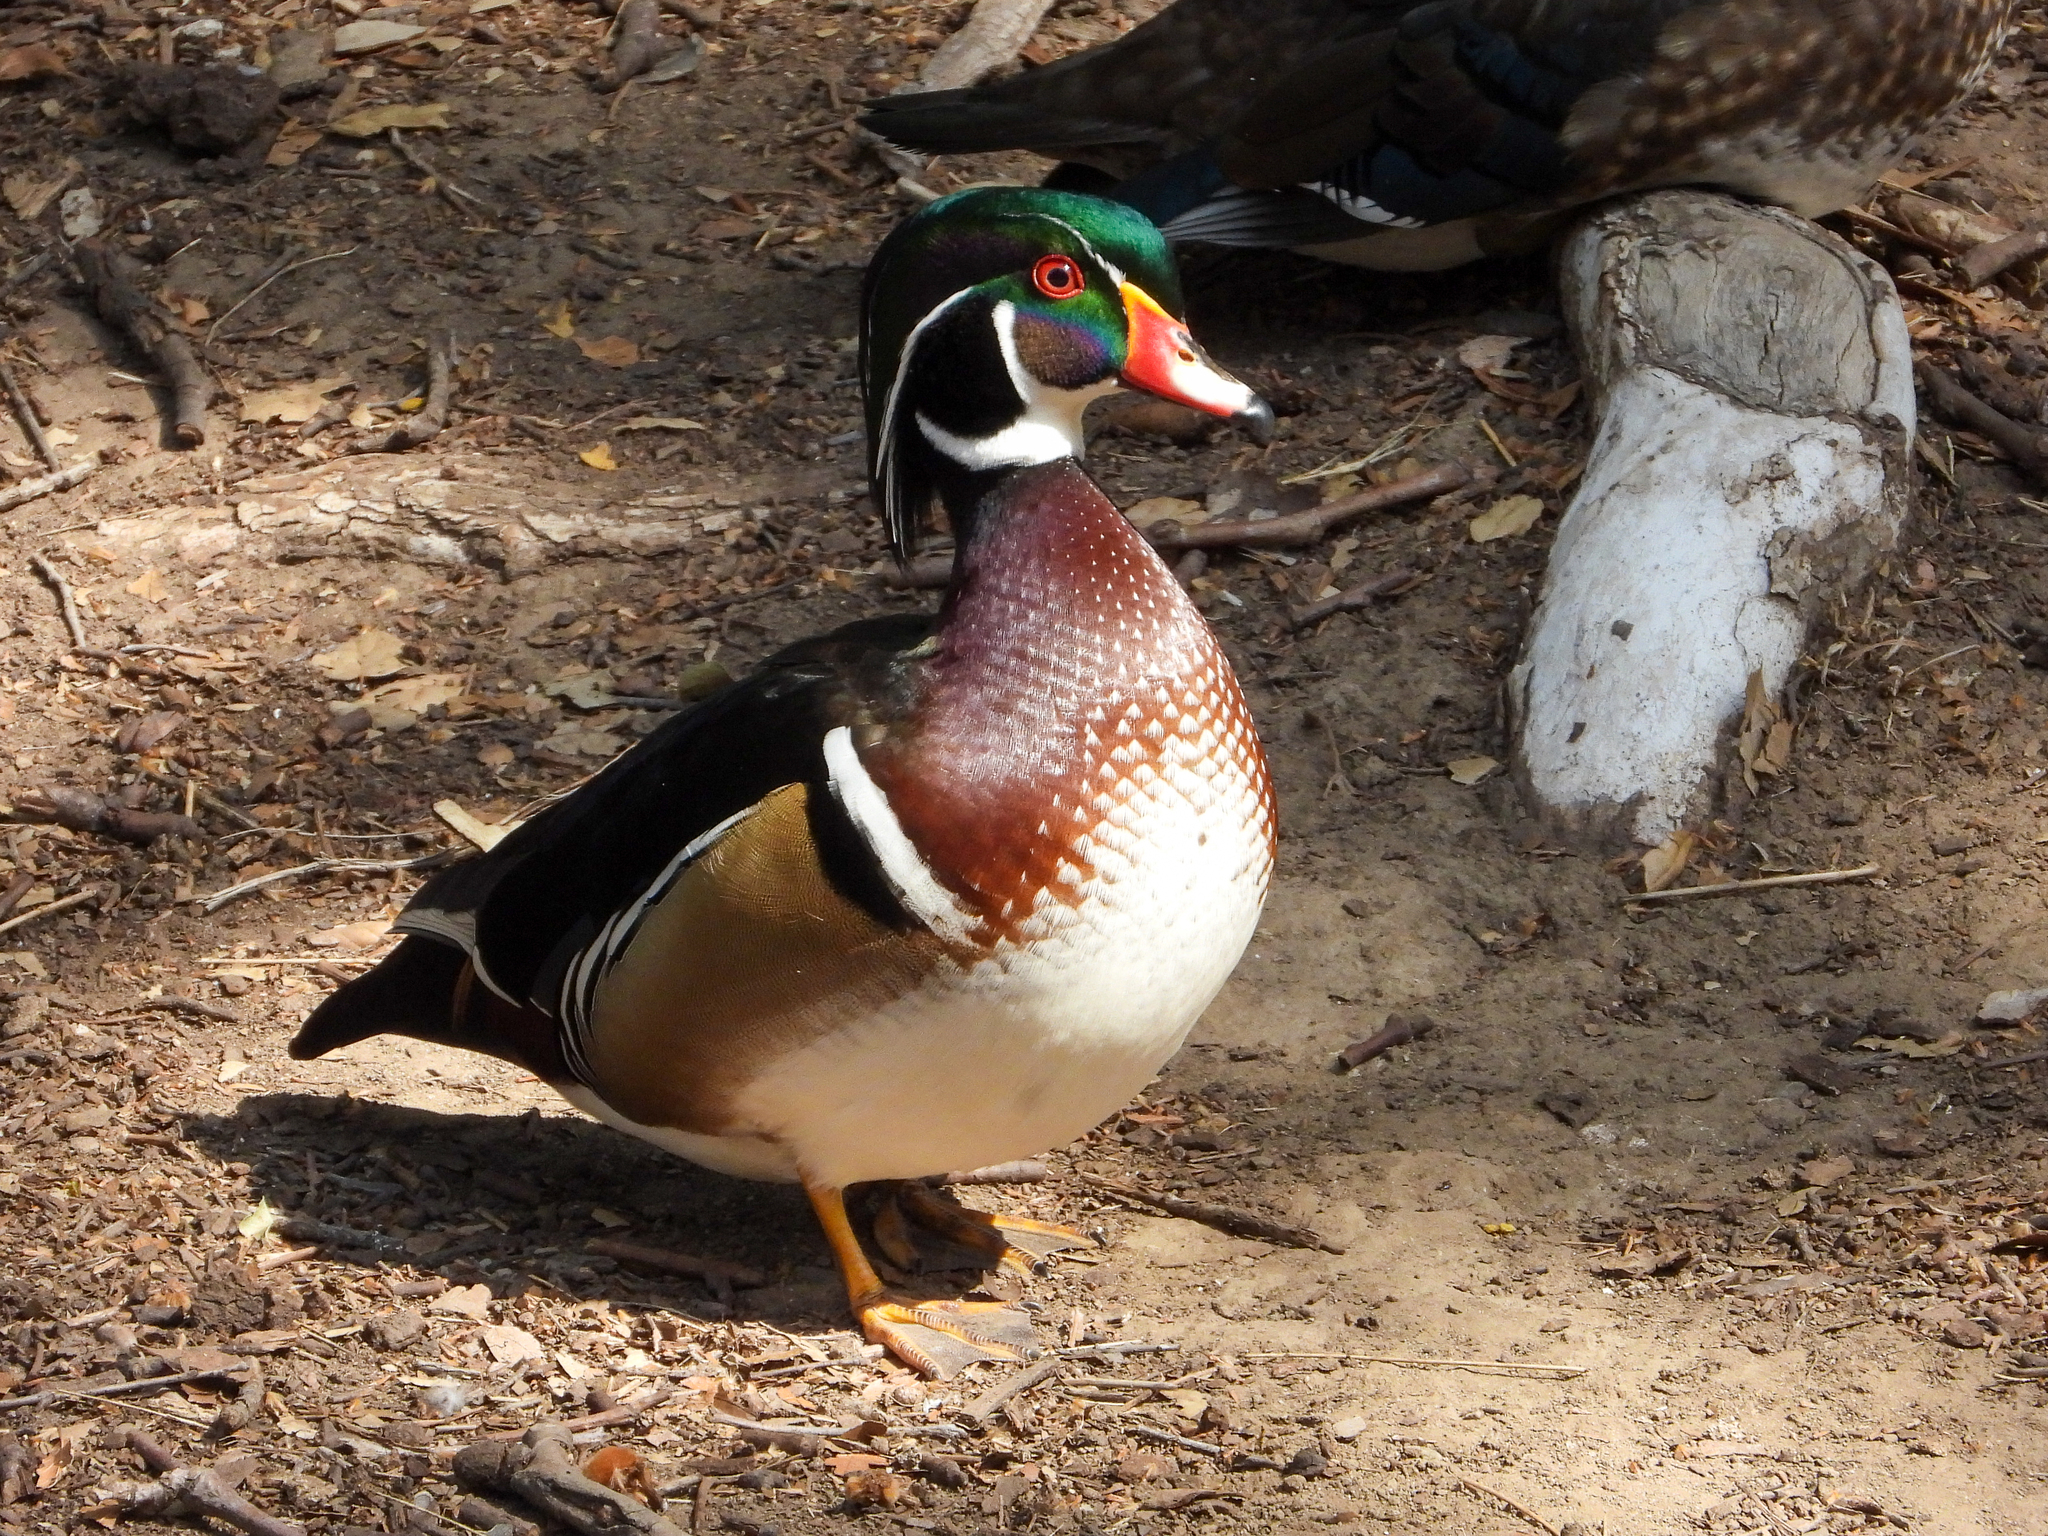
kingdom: Animalia
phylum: Chordata
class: Aves
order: Anseriformes
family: Anatidae
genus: Aix
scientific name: Aix sponsa
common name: Wood duck
